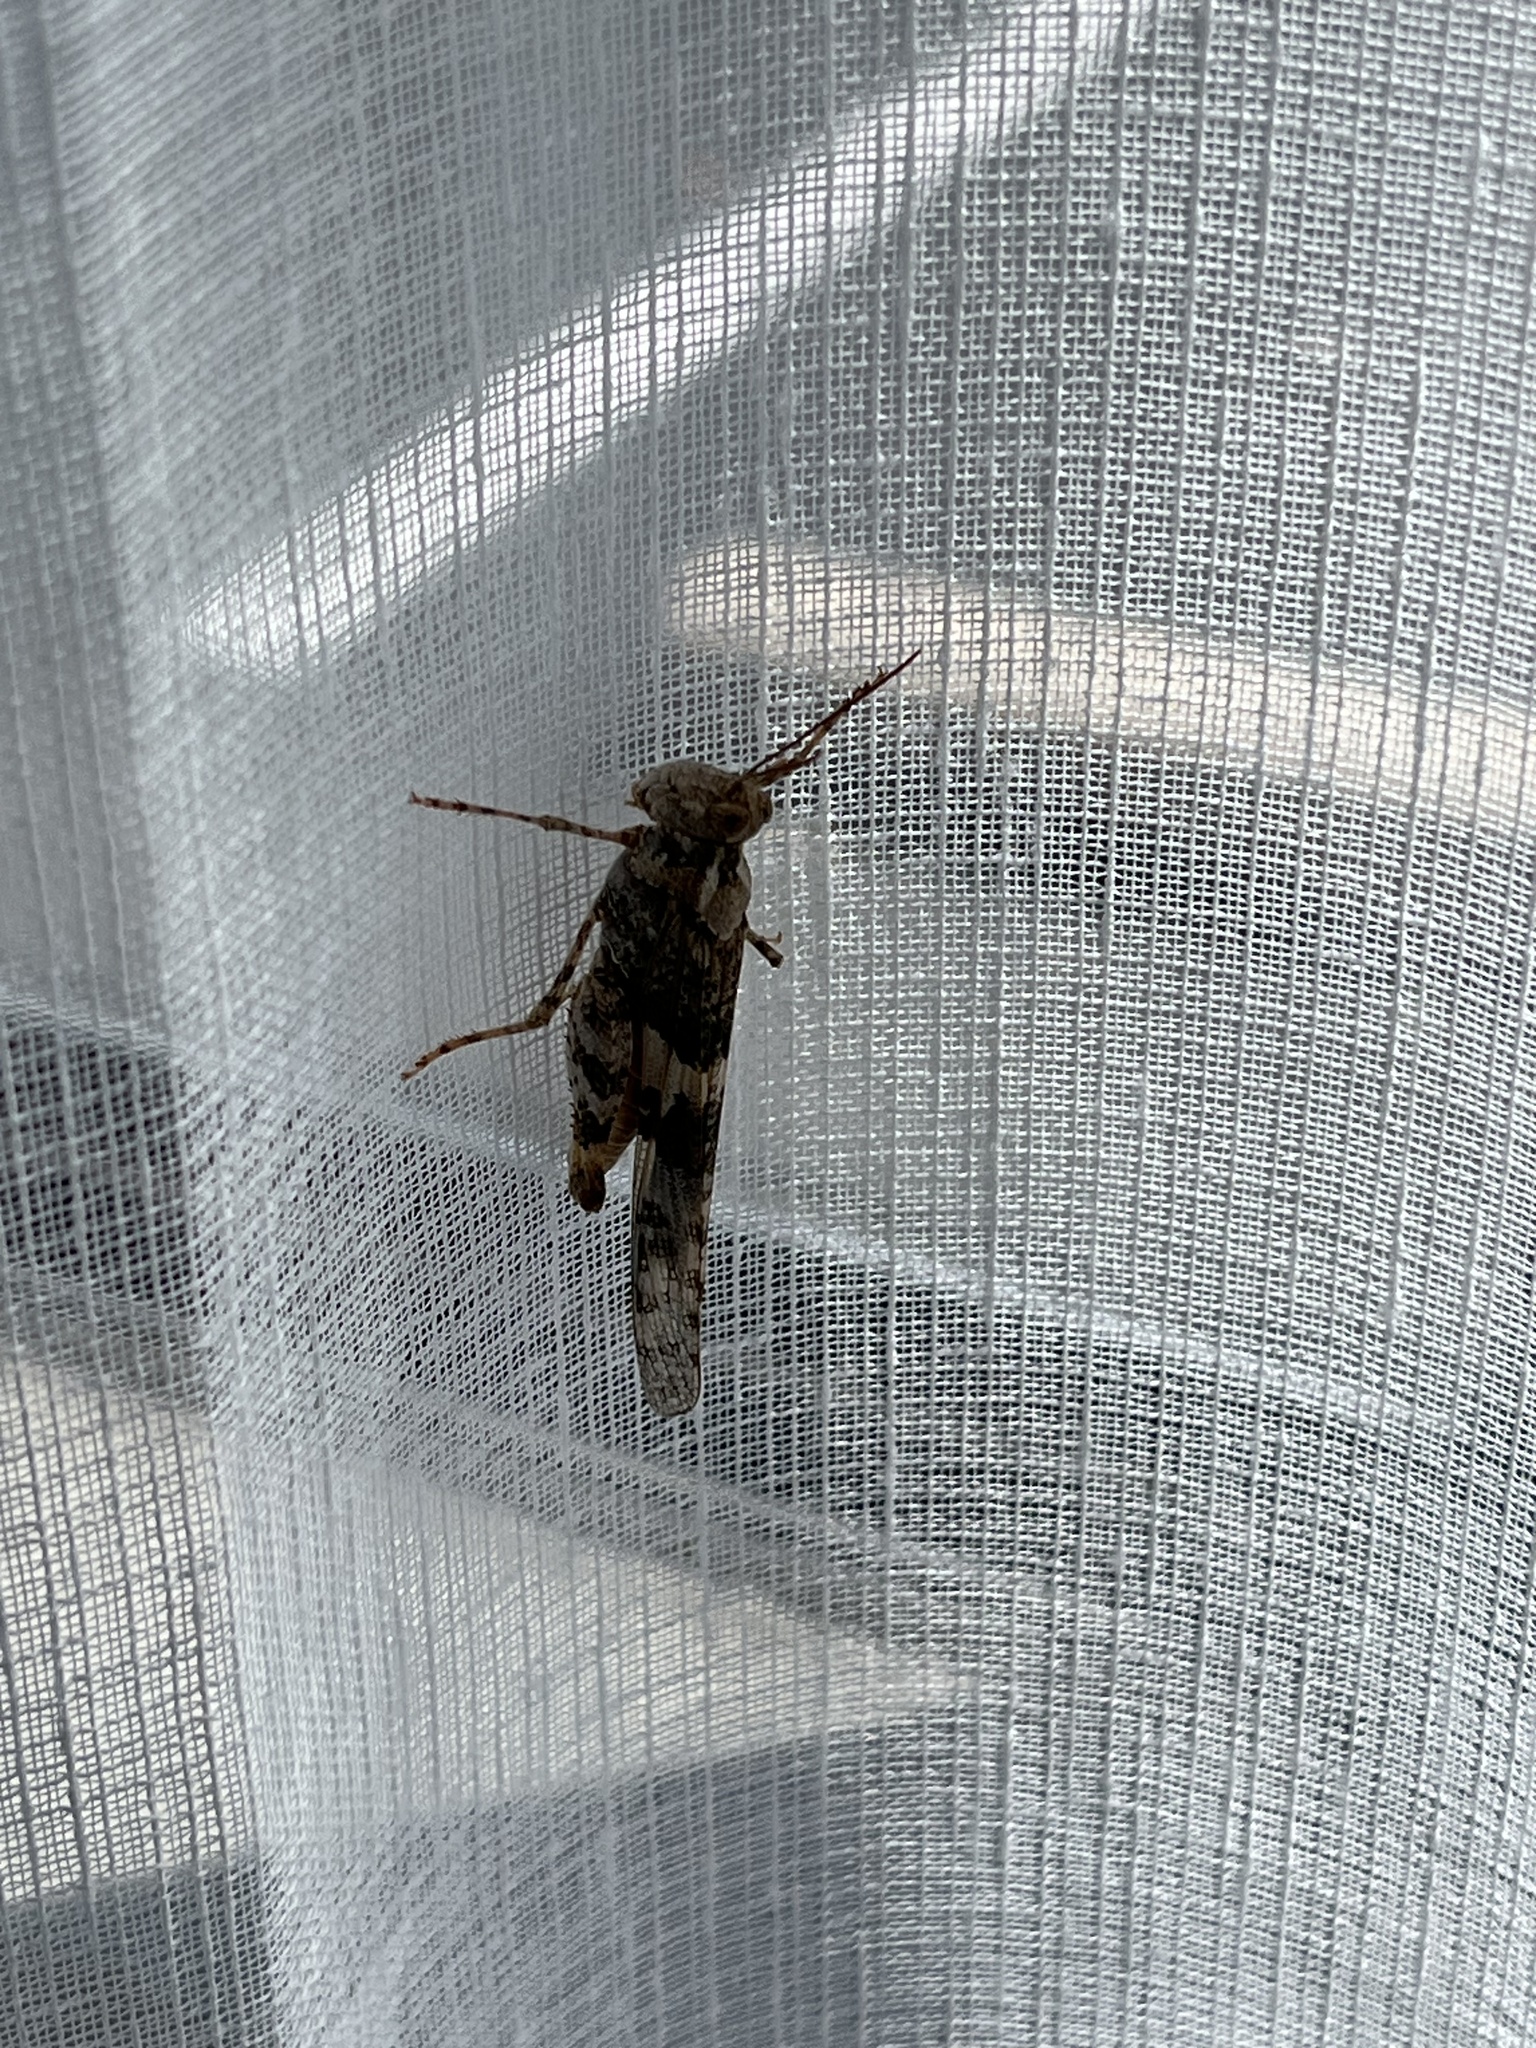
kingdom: Animalia
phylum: Arthropoda
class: Insecta
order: Orthoptera
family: Acrididae
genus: Trimerotropis
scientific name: Trimerotropis pallidipennis
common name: Pallid-winged grasshopper
